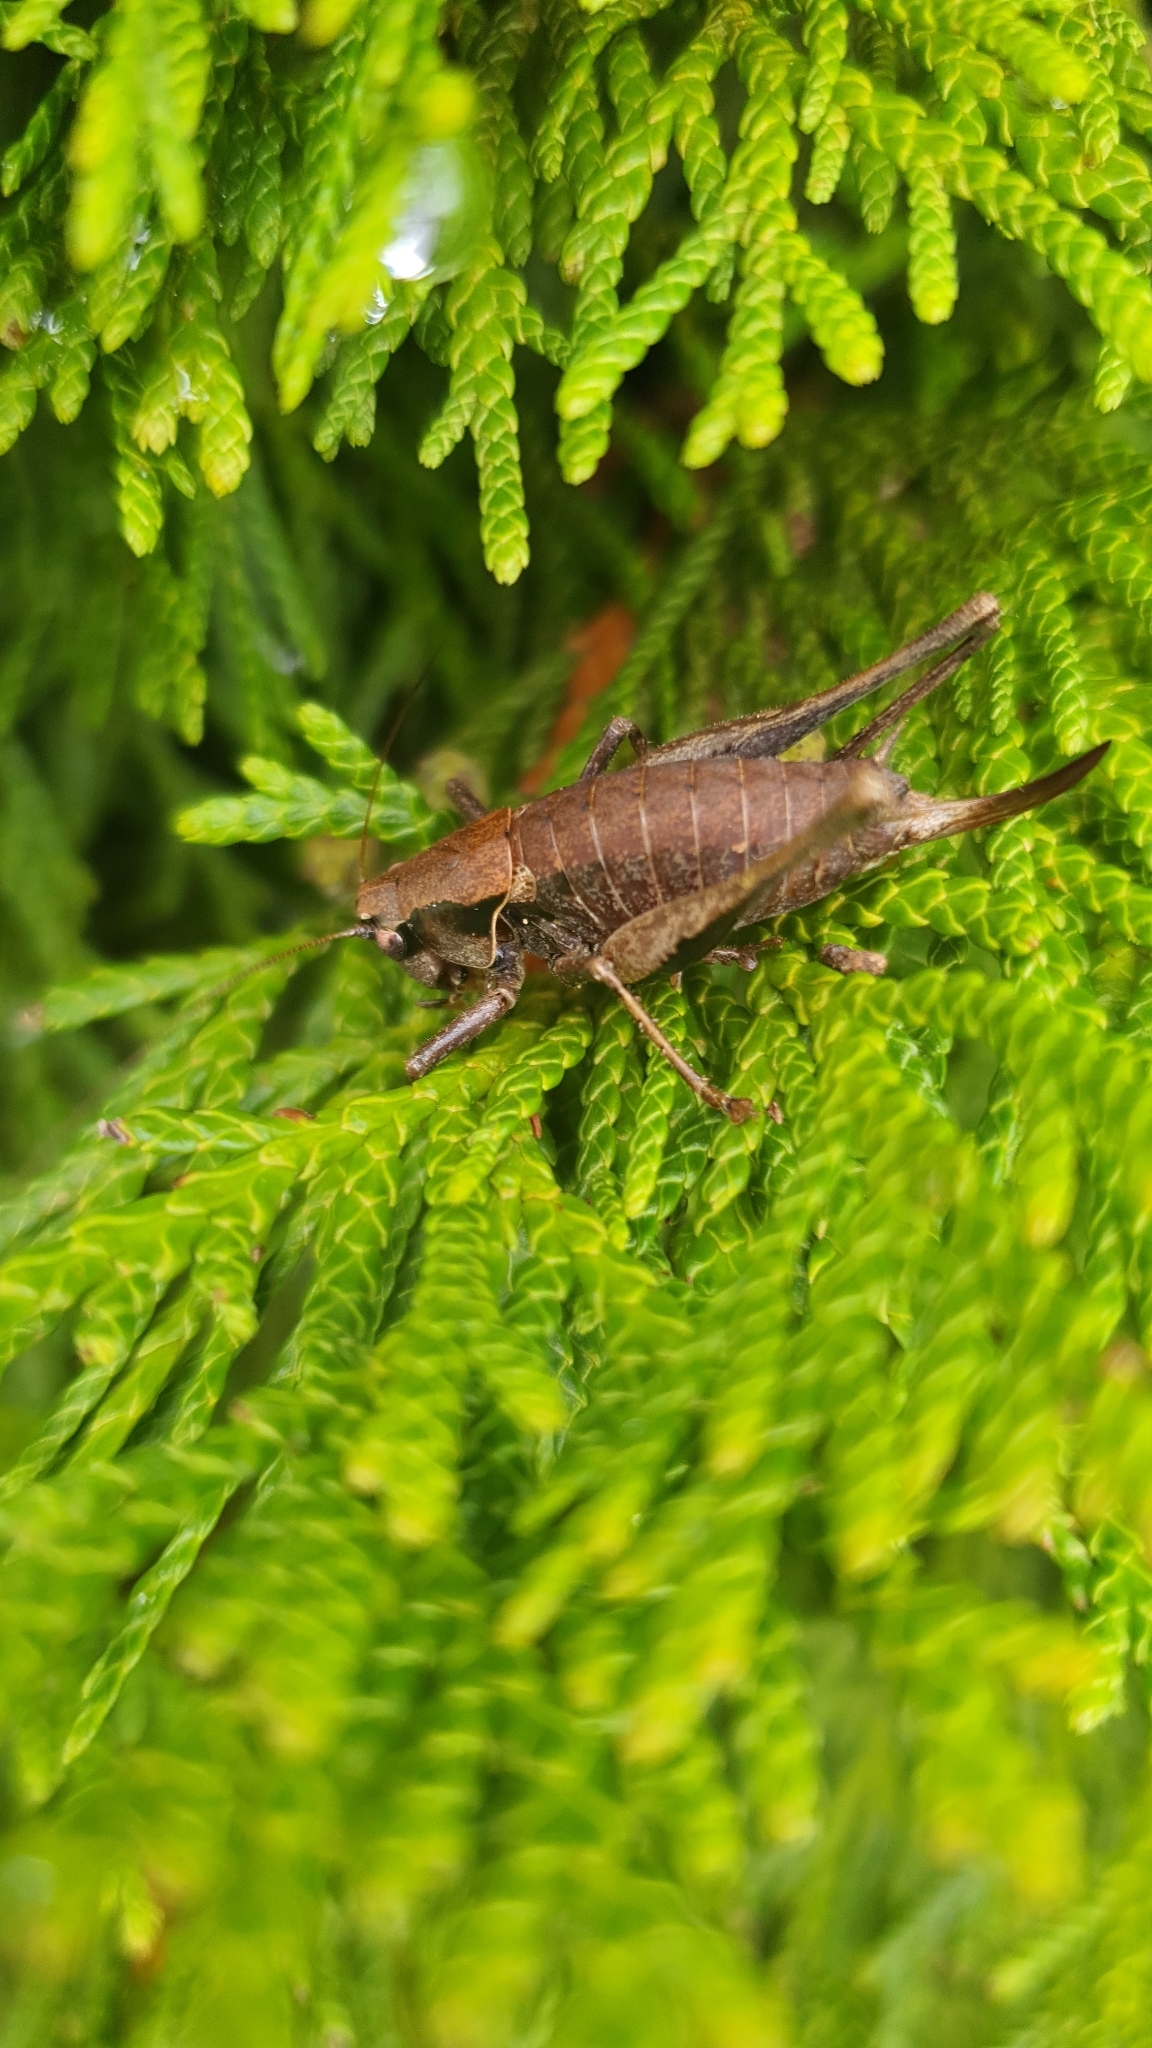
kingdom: Animalia
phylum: Arthropoda
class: Insecta
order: Orthoptera
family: Tettigoniidae
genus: Pholidoptera
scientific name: Pholidoptera griseoaptera
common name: Dark bush-cricket
